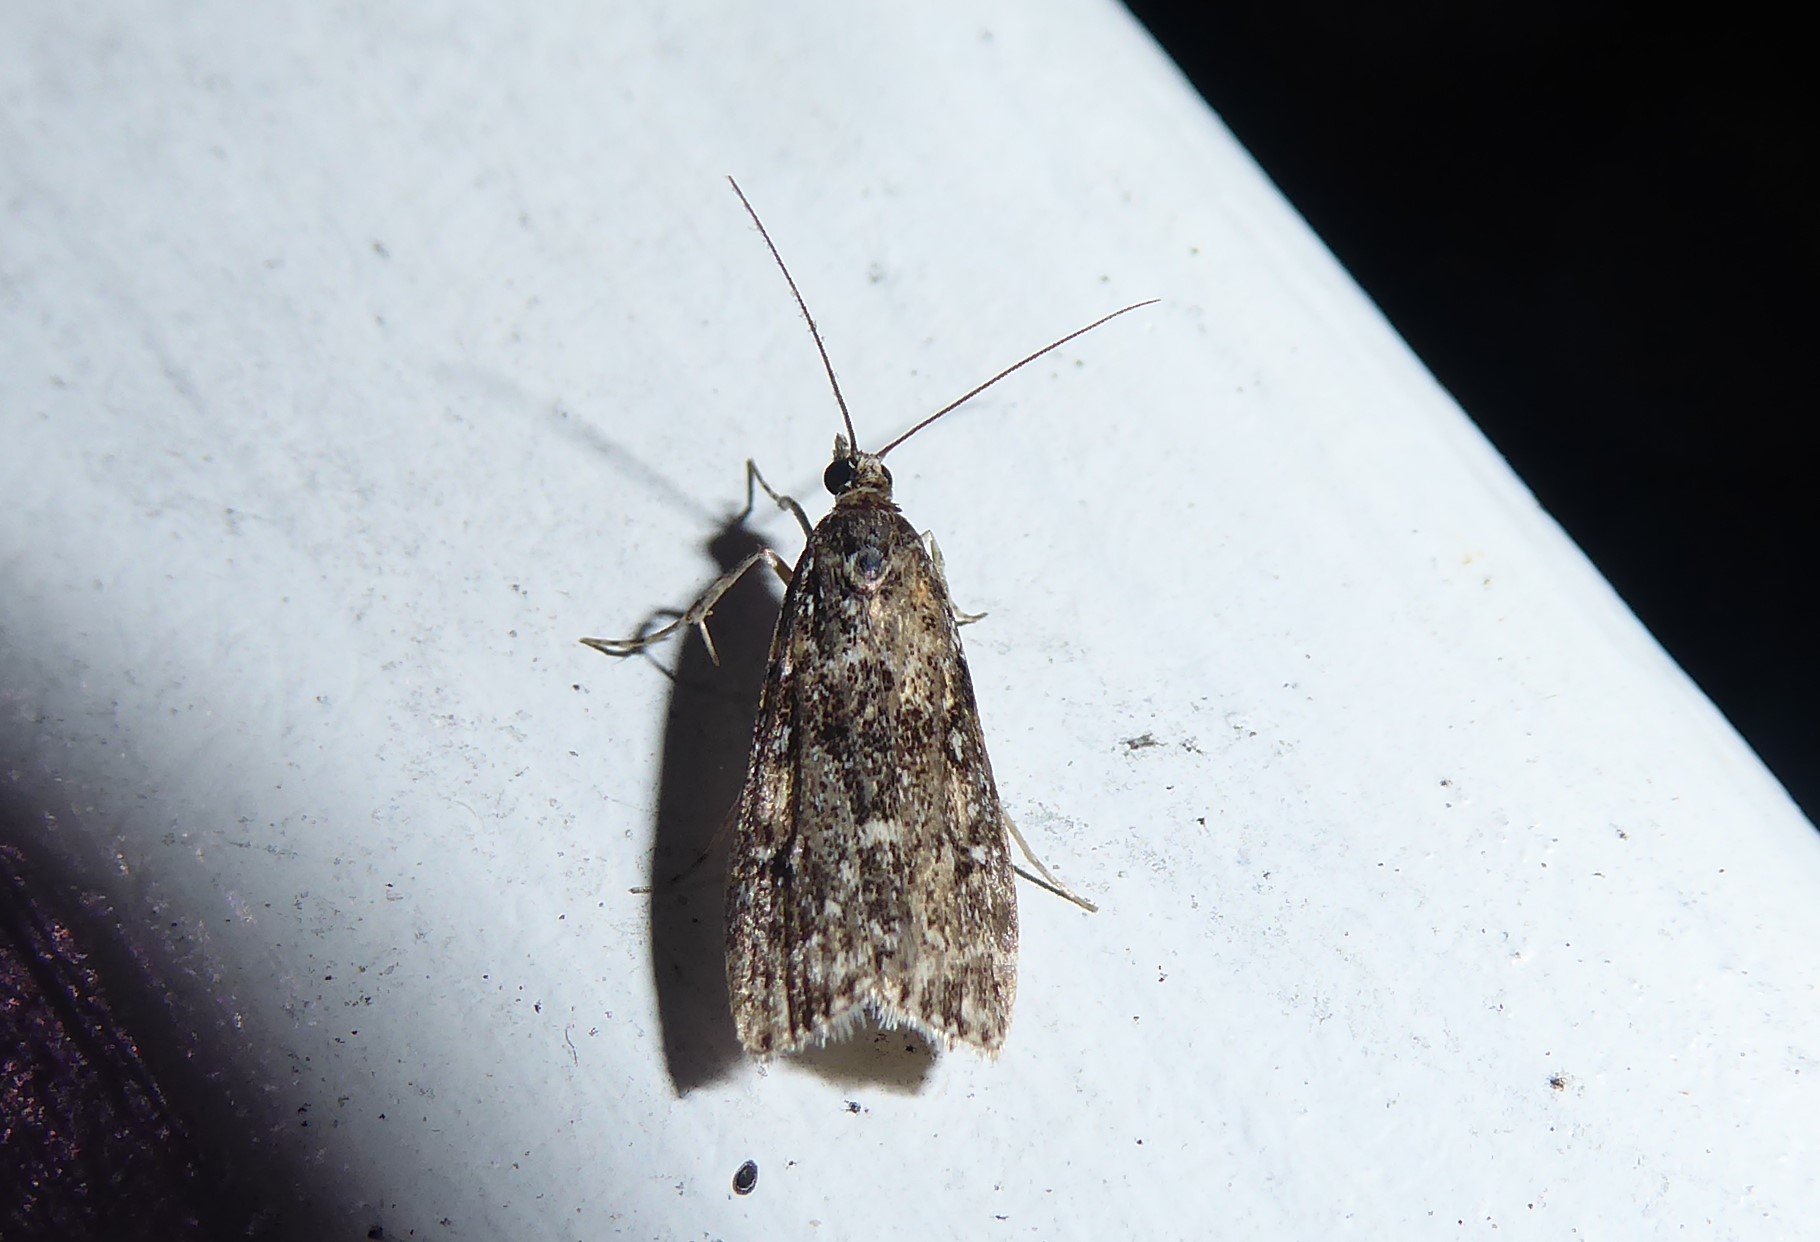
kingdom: Animalia
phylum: Arthropoda
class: Insecta
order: Lepidoptera
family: Crambidae
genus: Eudonia
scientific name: Eudonia philerga
